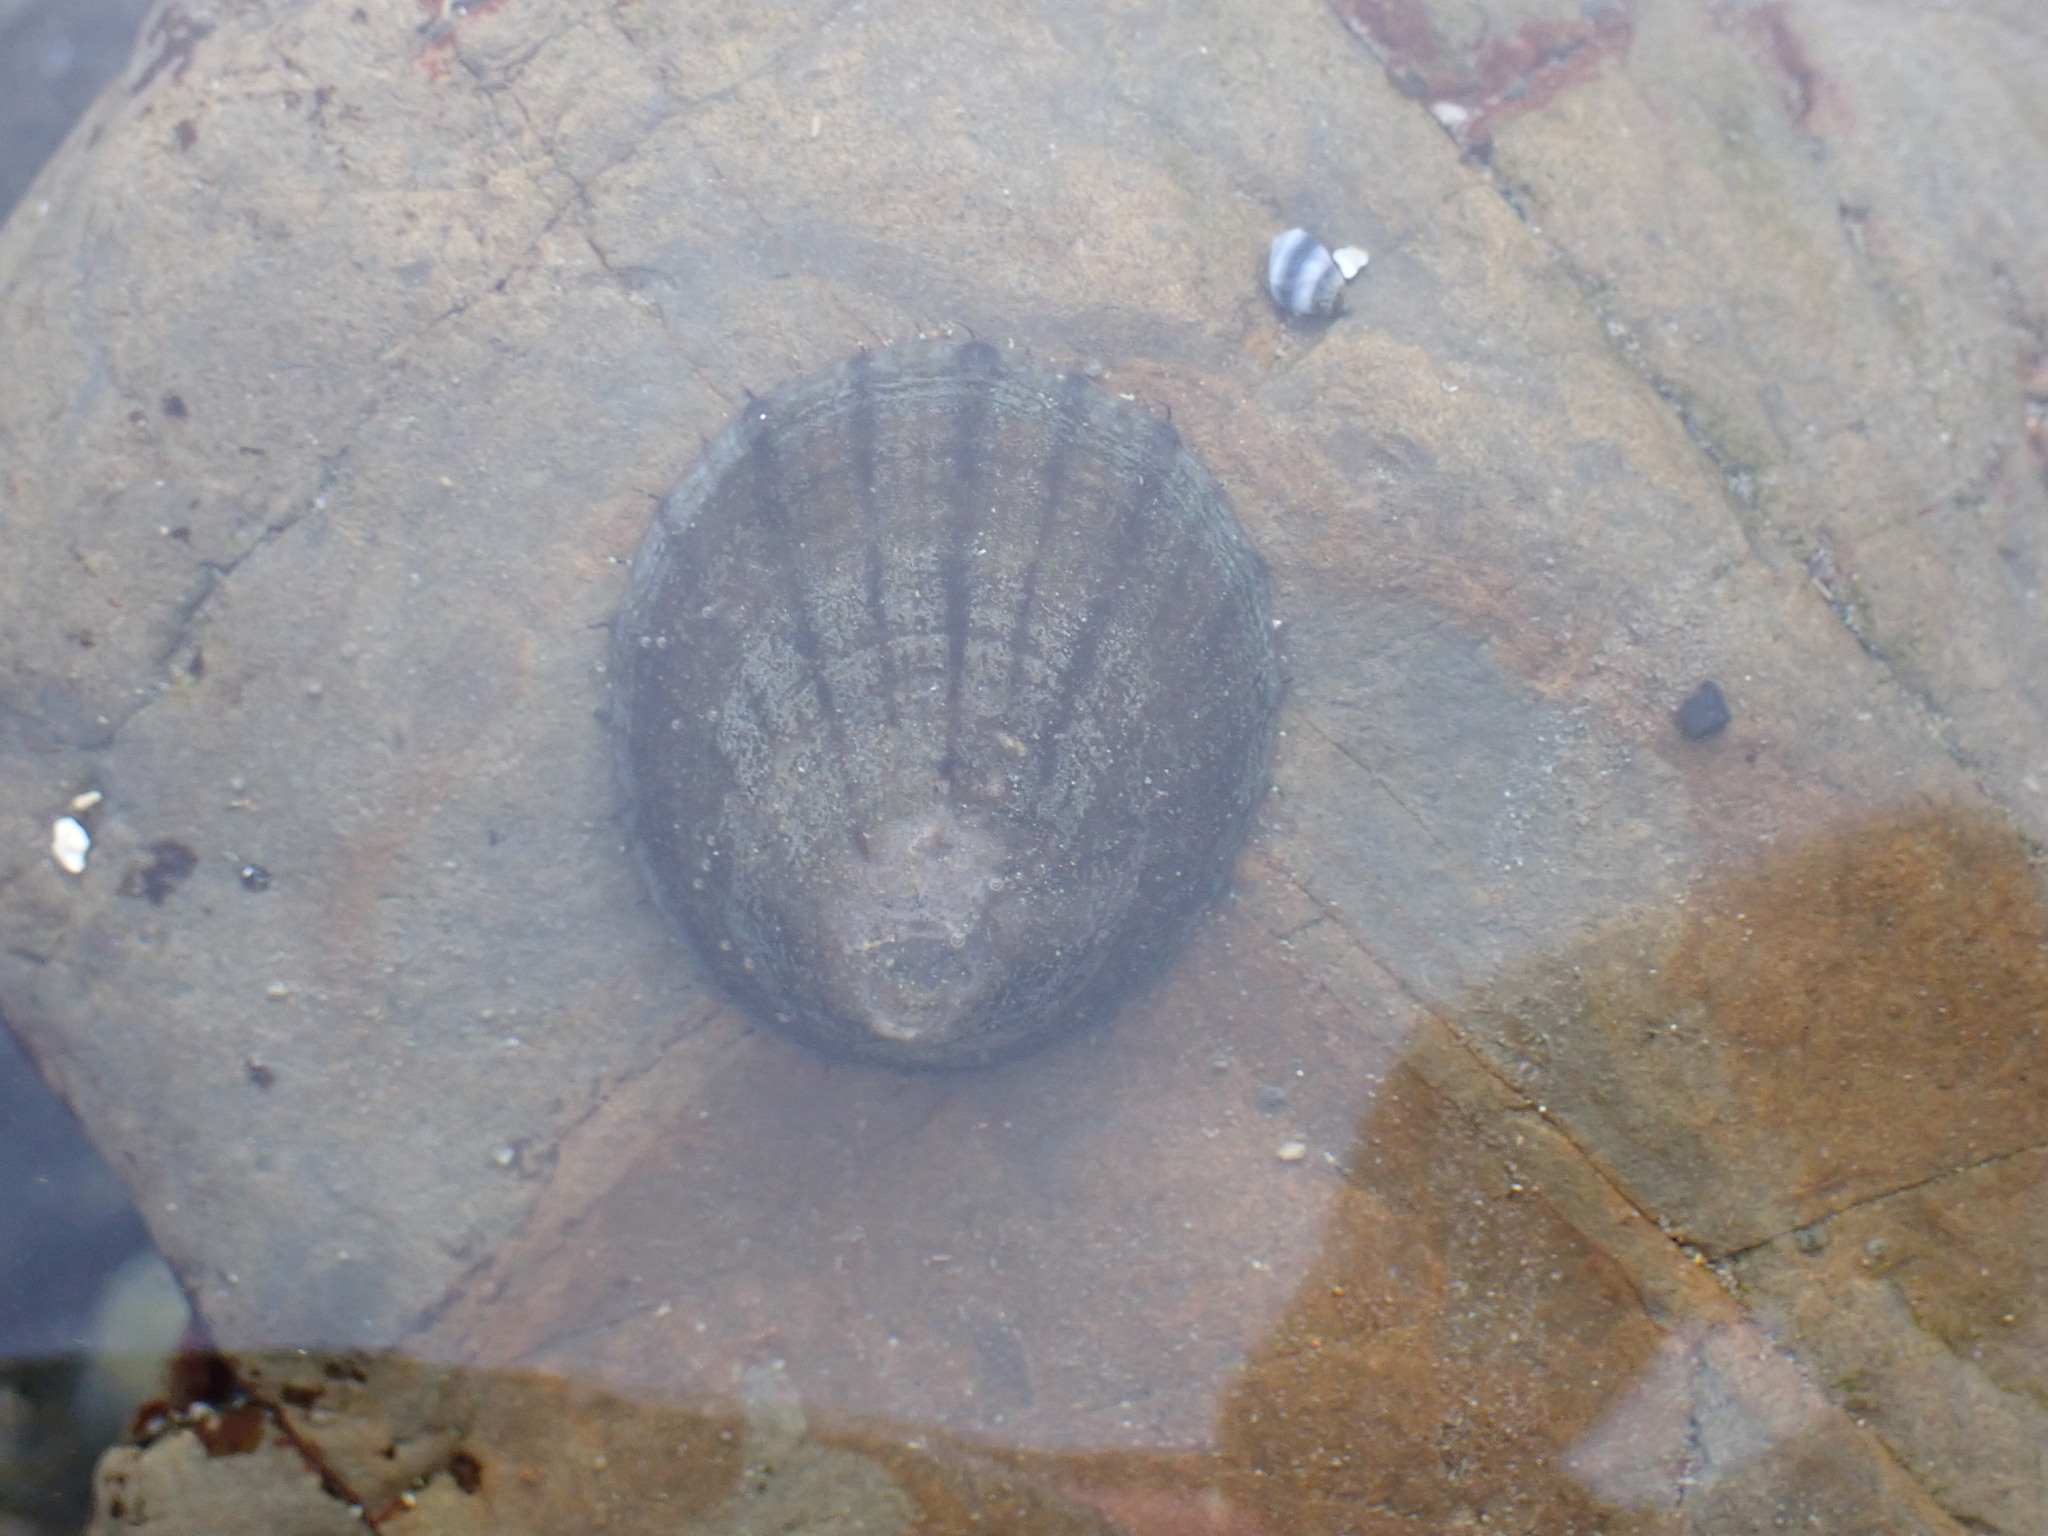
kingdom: Animalia
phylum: Mollusca
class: Gastropoda
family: Nacellidae
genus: Cellana
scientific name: Cellana radians
